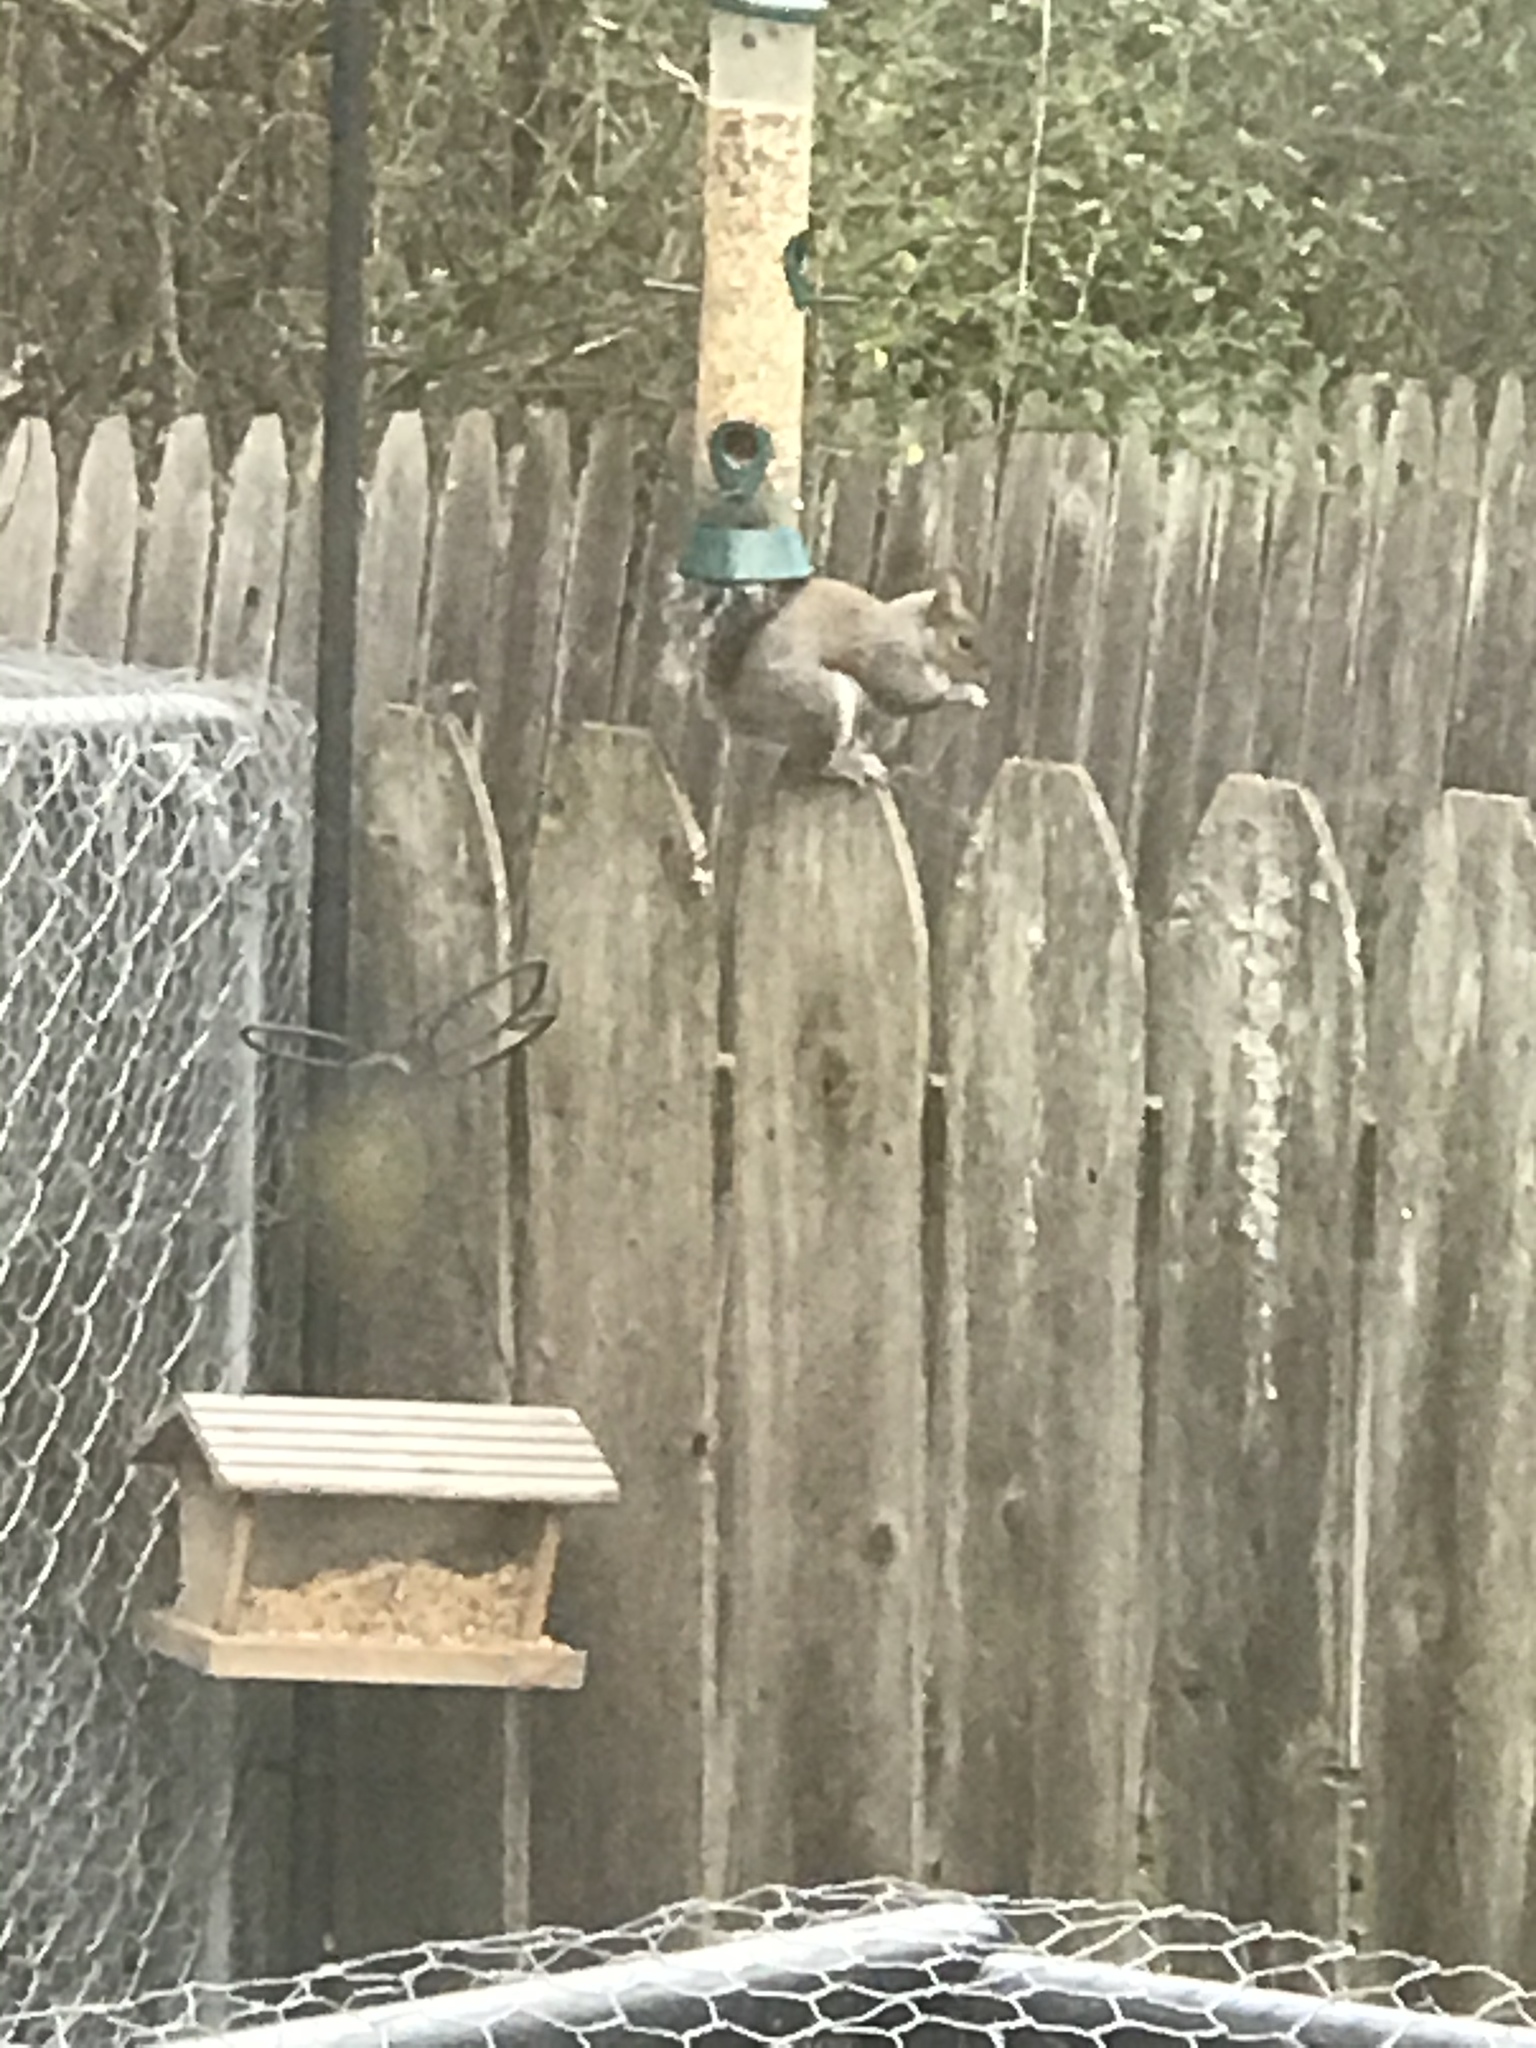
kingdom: Animalia
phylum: Chordata
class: Mammalia
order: Rodentia
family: Sciuridae
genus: Sciurus
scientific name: Sciurus carolinensis
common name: Eastern gray squirrel
